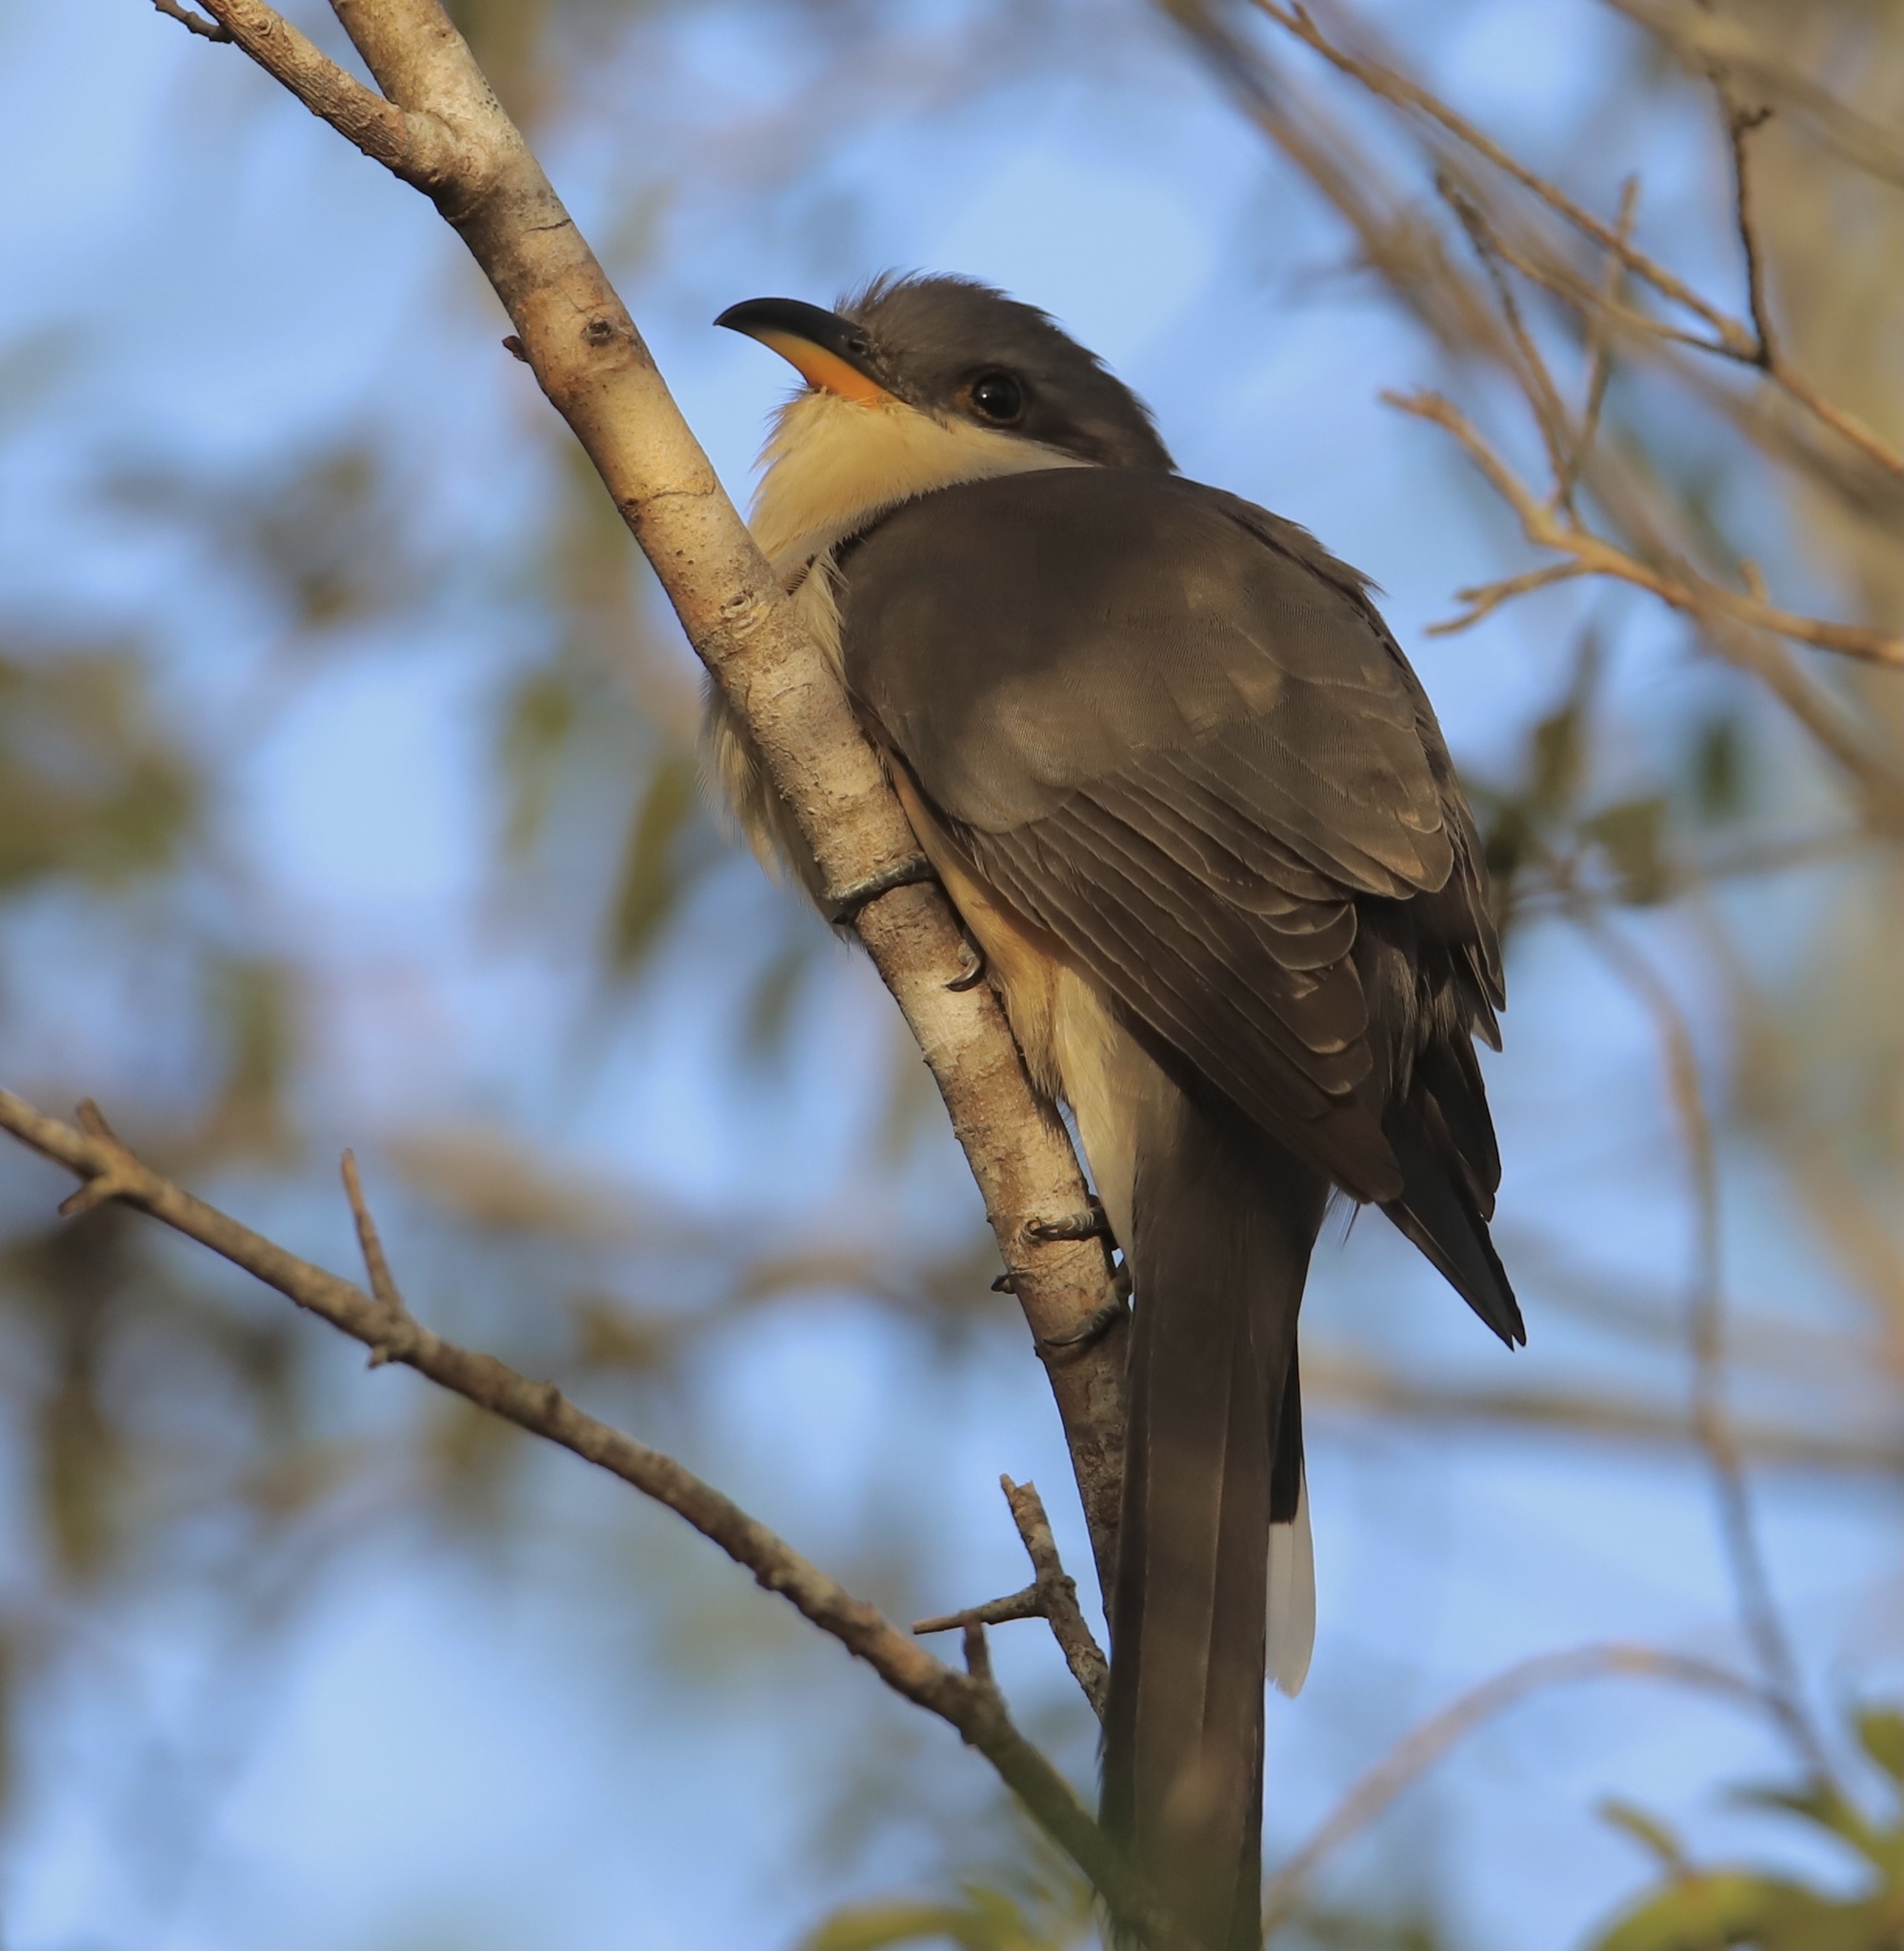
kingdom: Animalia
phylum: Chordata
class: Aves
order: Cuculiformes
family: Cuculidae
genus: Coccyzus
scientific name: Coccyzus minor
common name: Mangrove cuckoo
